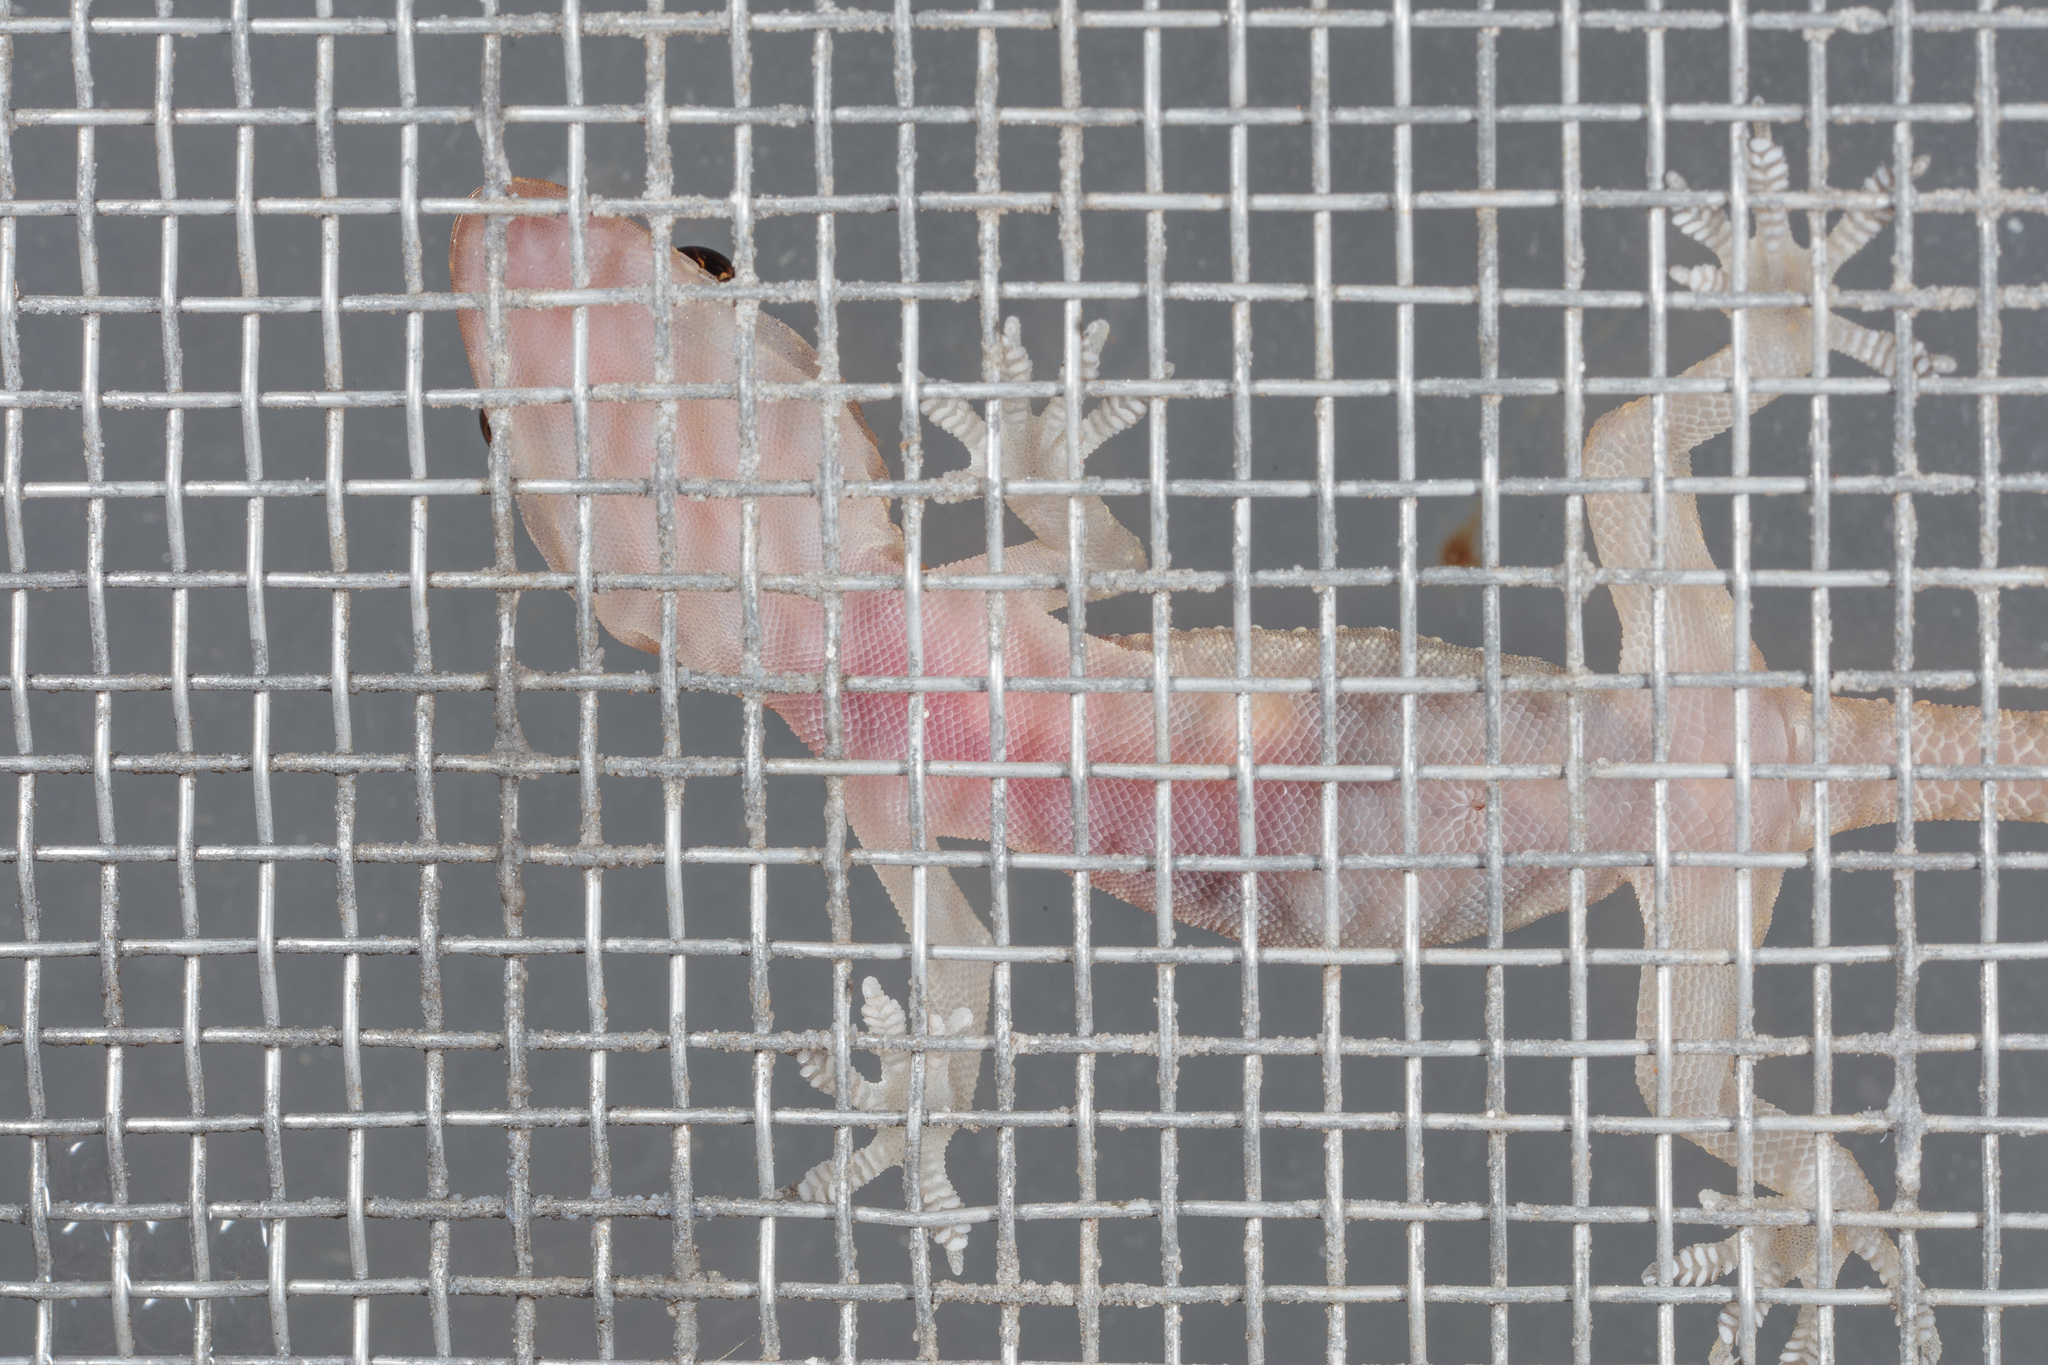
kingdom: Animalia
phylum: Chordata
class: Squamata
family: Gekkonidae
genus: Hemidactylus
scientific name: Hemidactylus turcicus
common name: Turkish gecko
